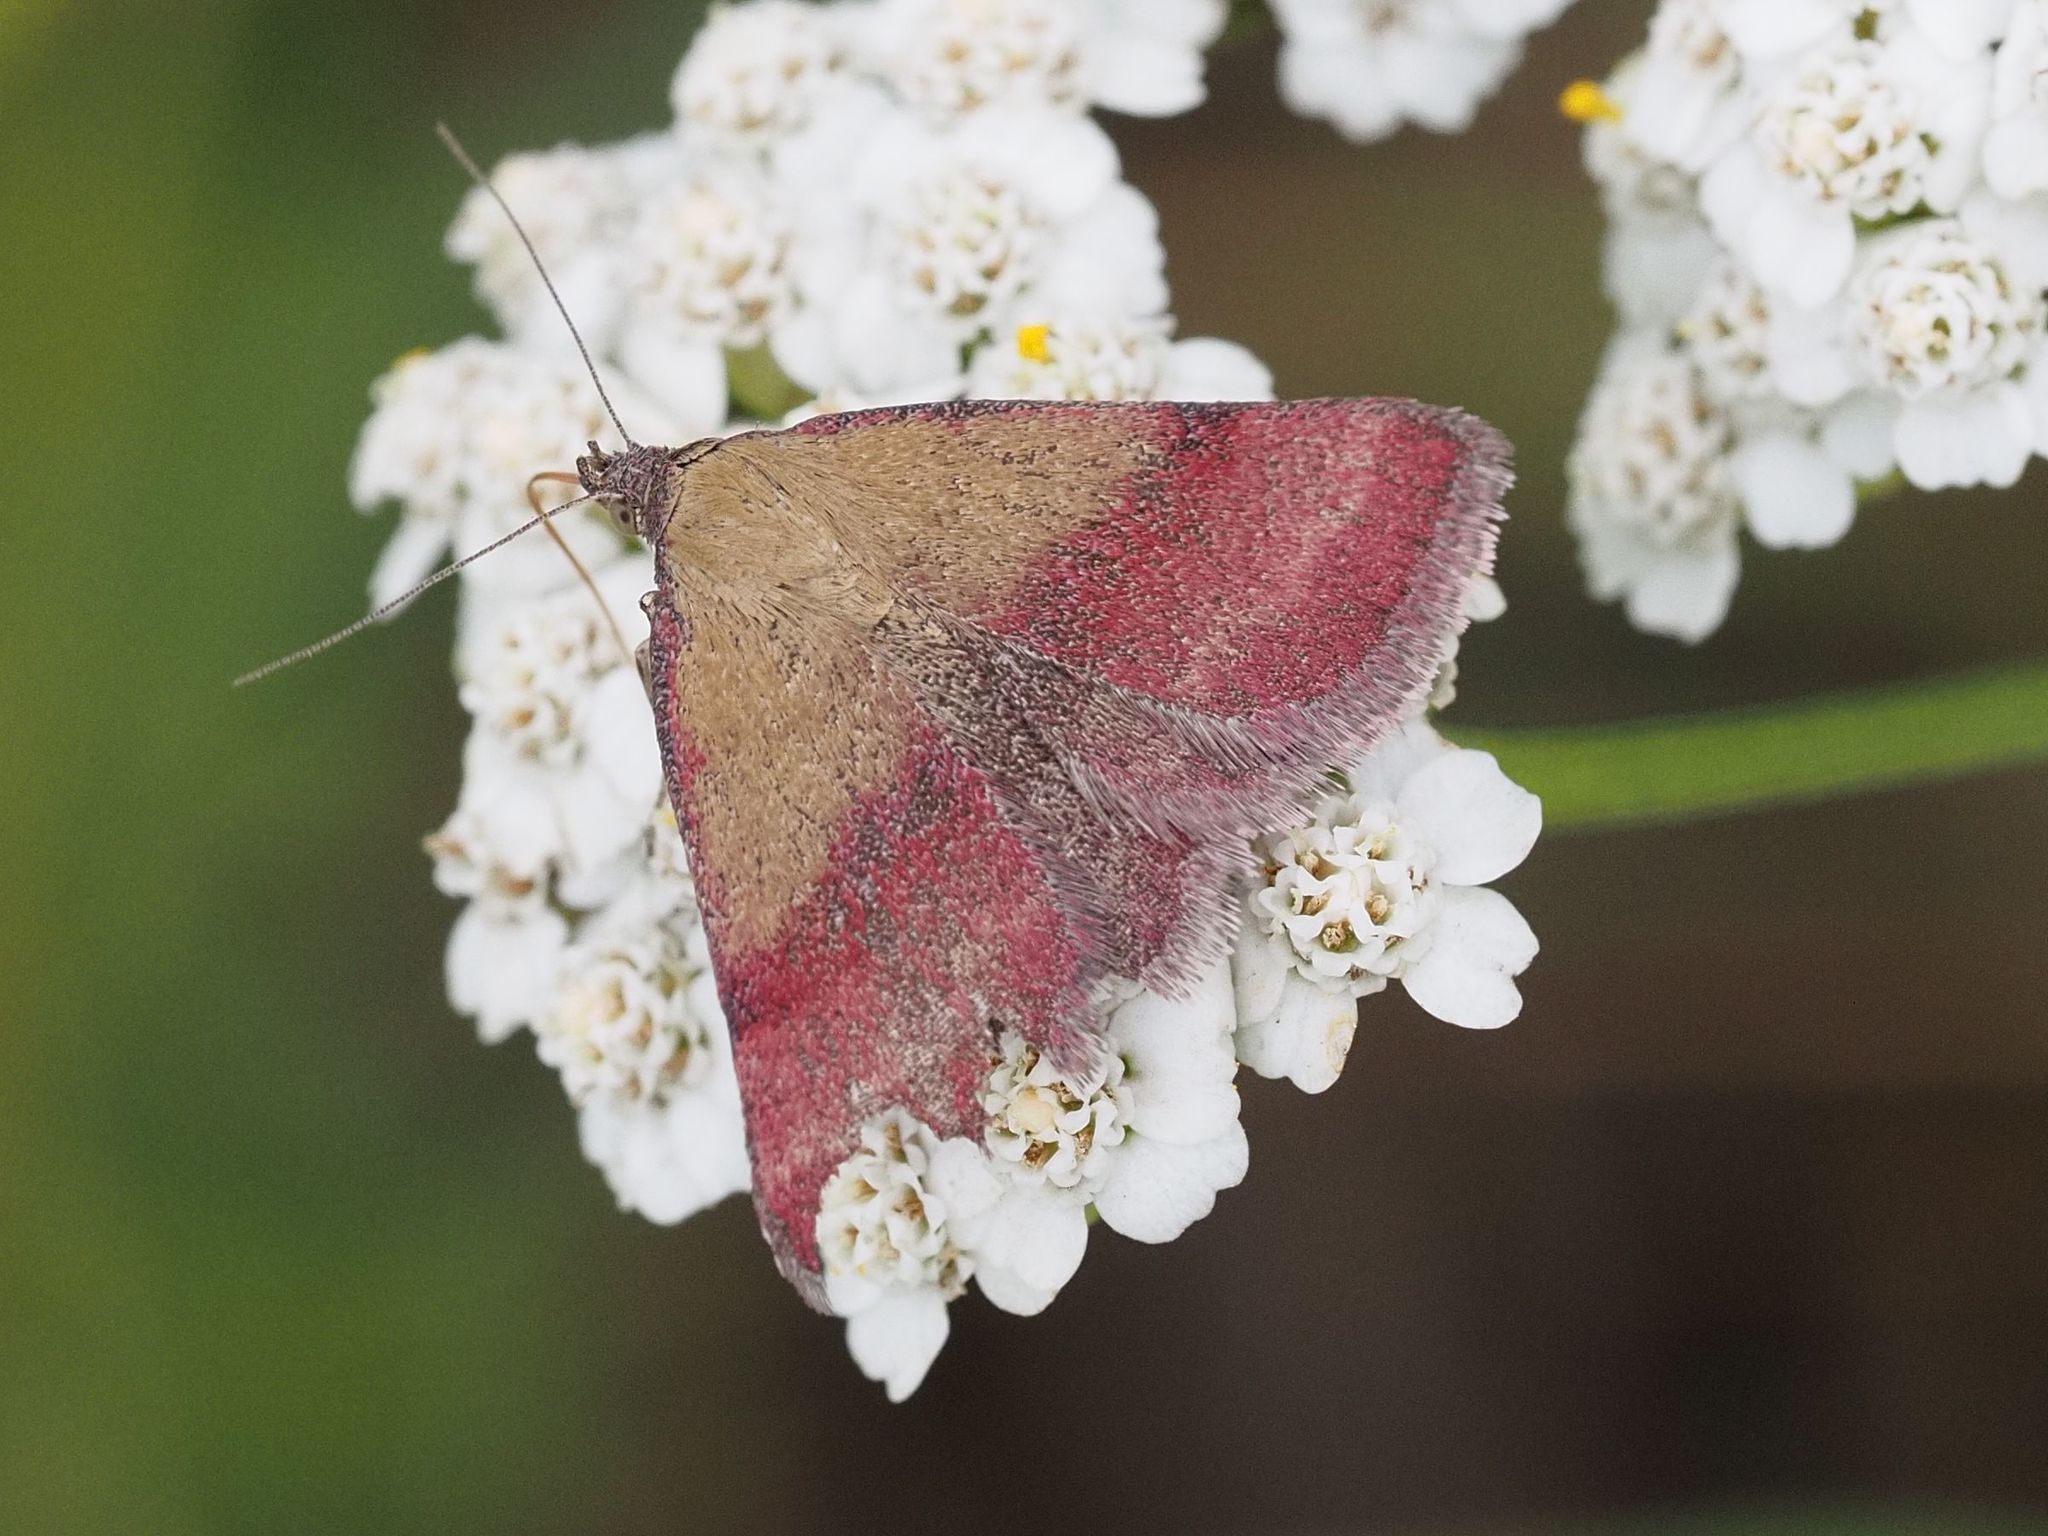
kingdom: Animalia
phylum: Arthropoda
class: Insecta
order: Lepidoptera
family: Erebidae
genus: Phytometra
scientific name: Phytometra viridaria
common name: Small purple-barred
